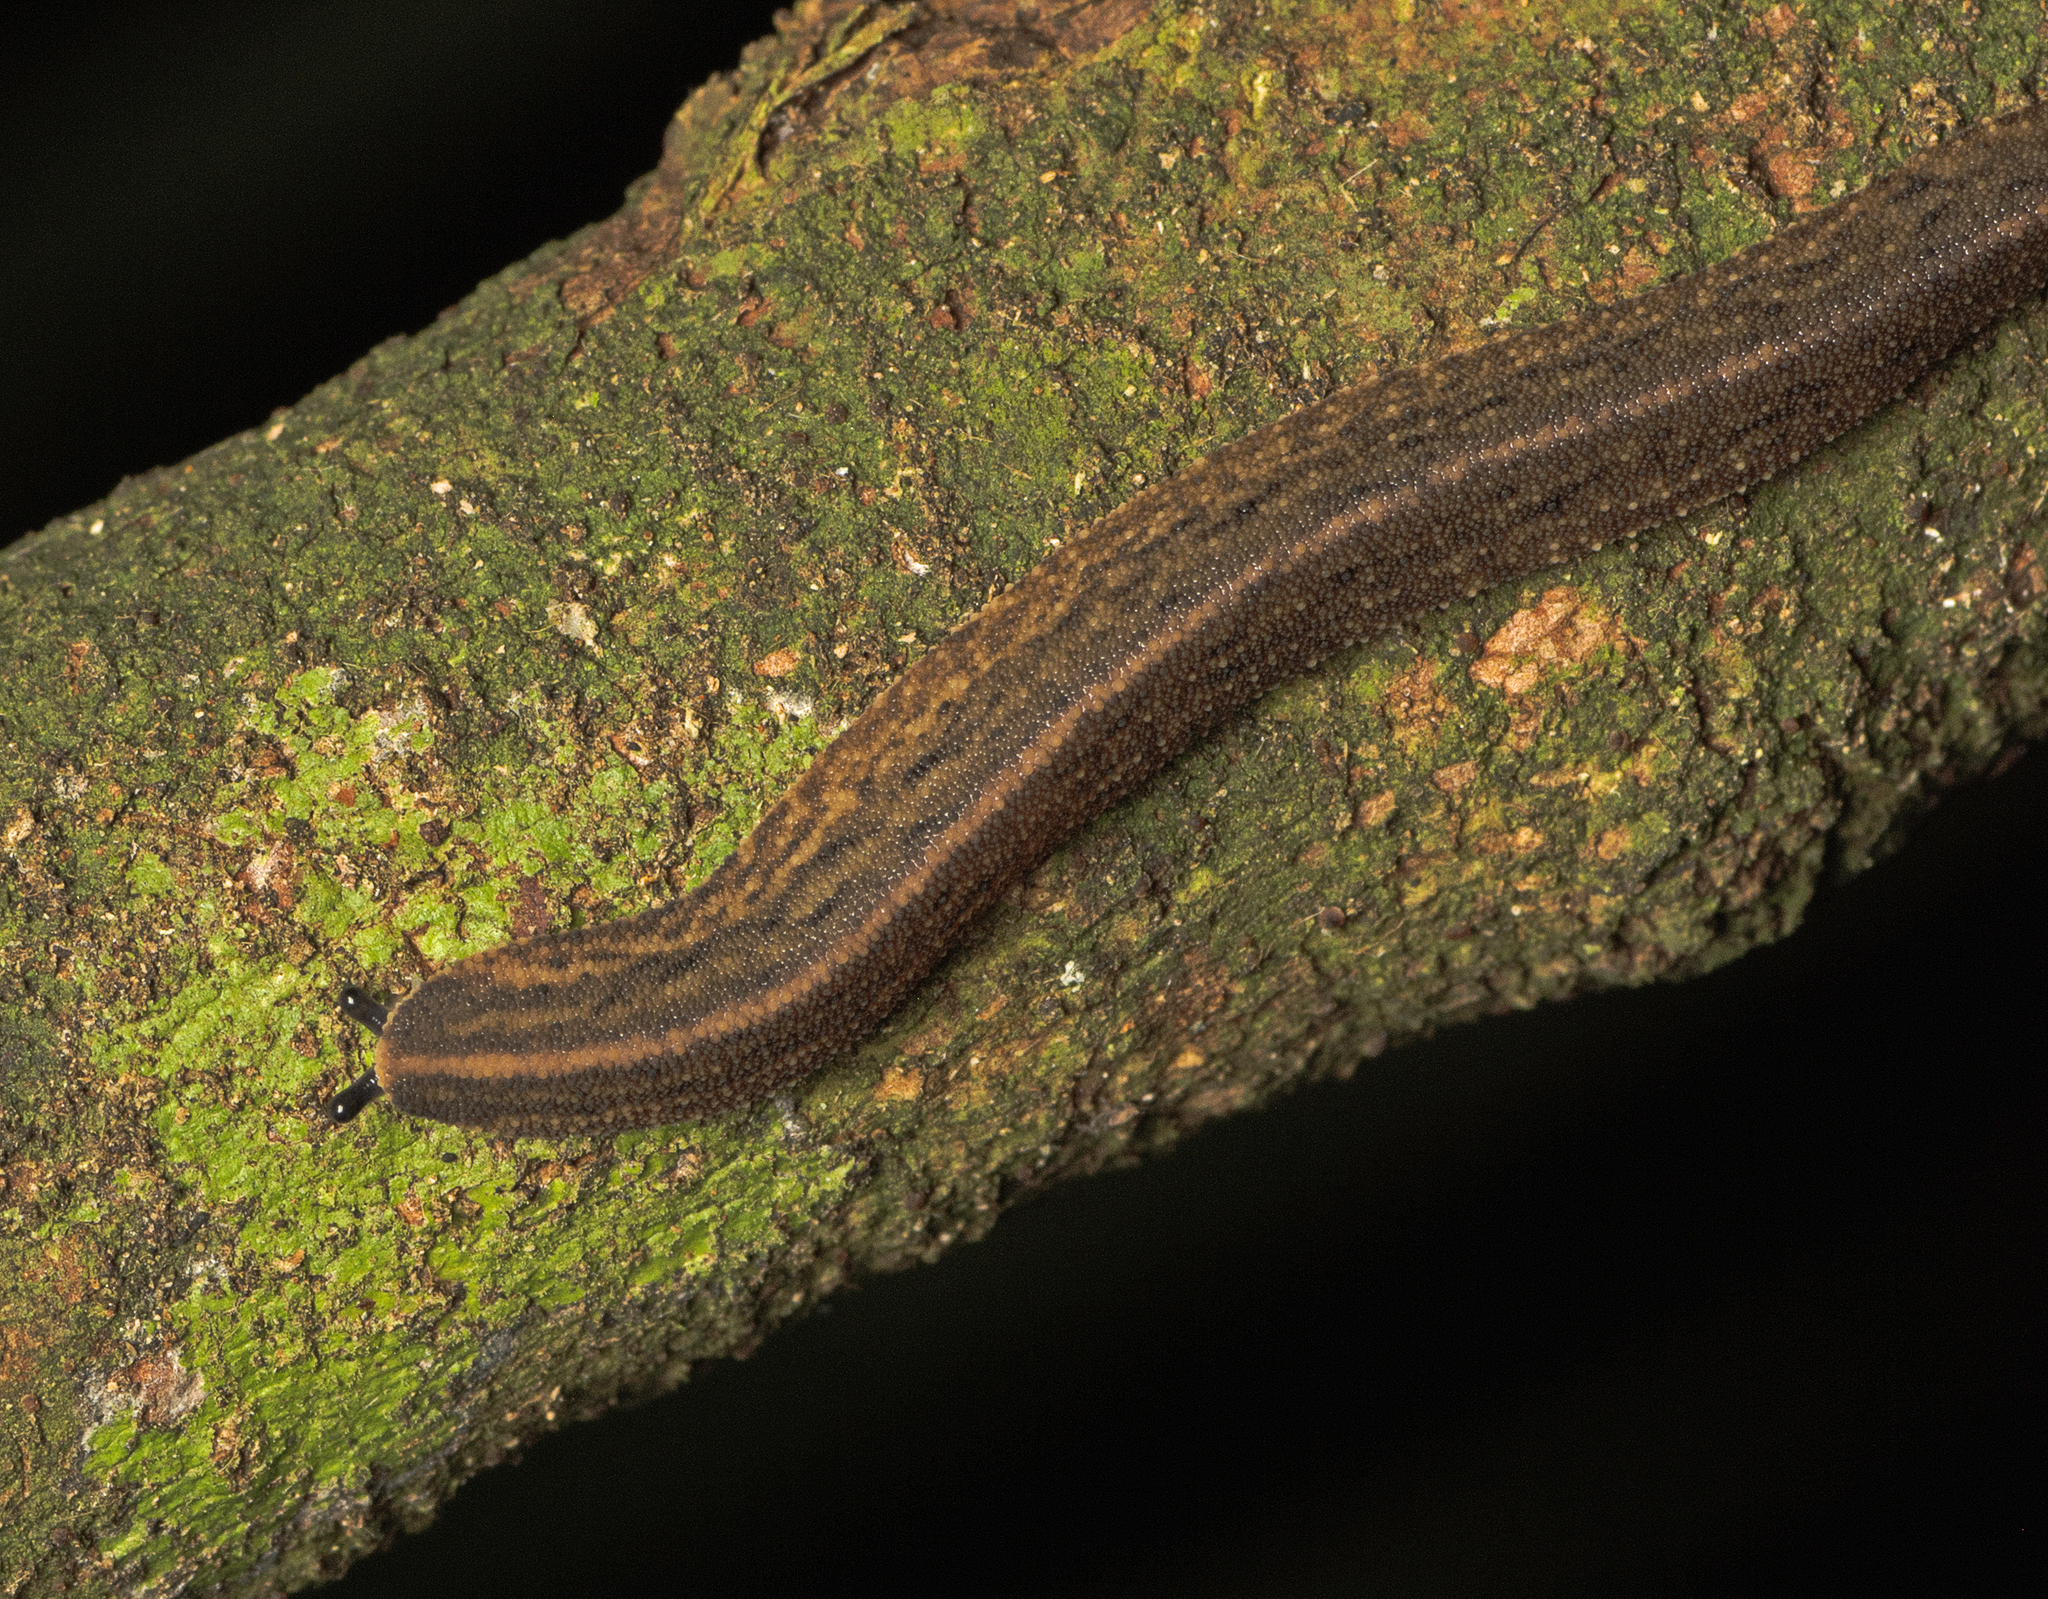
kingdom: Animalia
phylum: Mollusca
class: Gastropoda
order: Systellommatophora
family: Rathouisiidae
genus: Atopos
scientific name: Atopos australis
